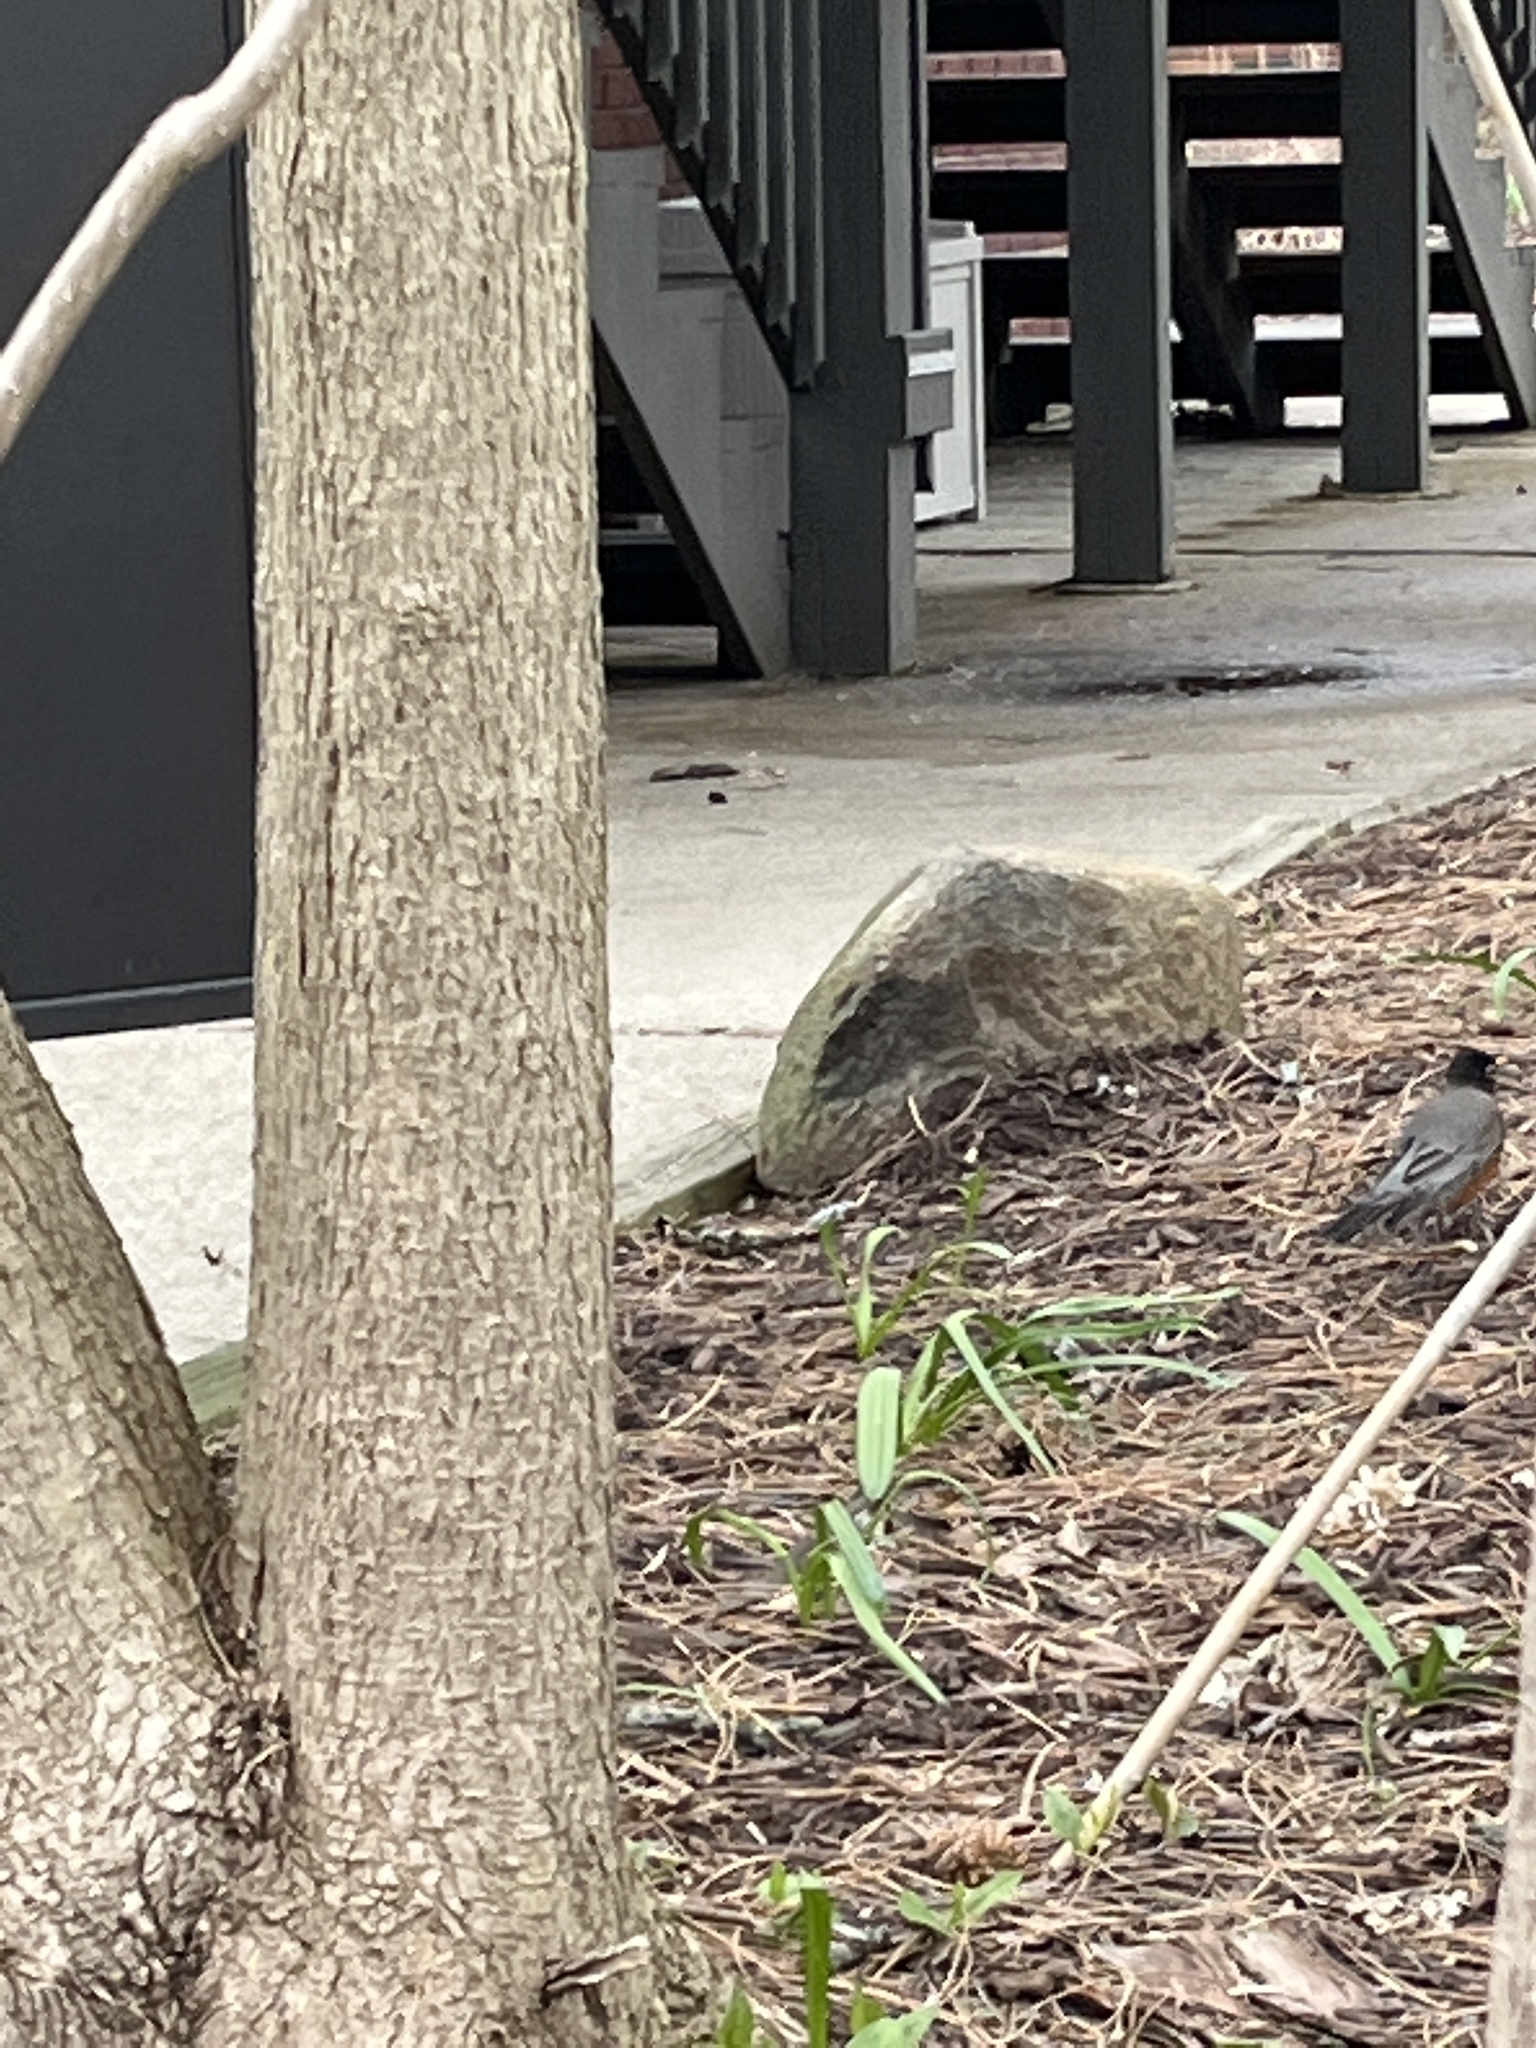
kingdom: Animalia
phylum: Chordata
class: Aves
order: Passeriformes
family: Turdidae
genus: Turdus
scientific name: Turdus migratorius
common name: American robin
